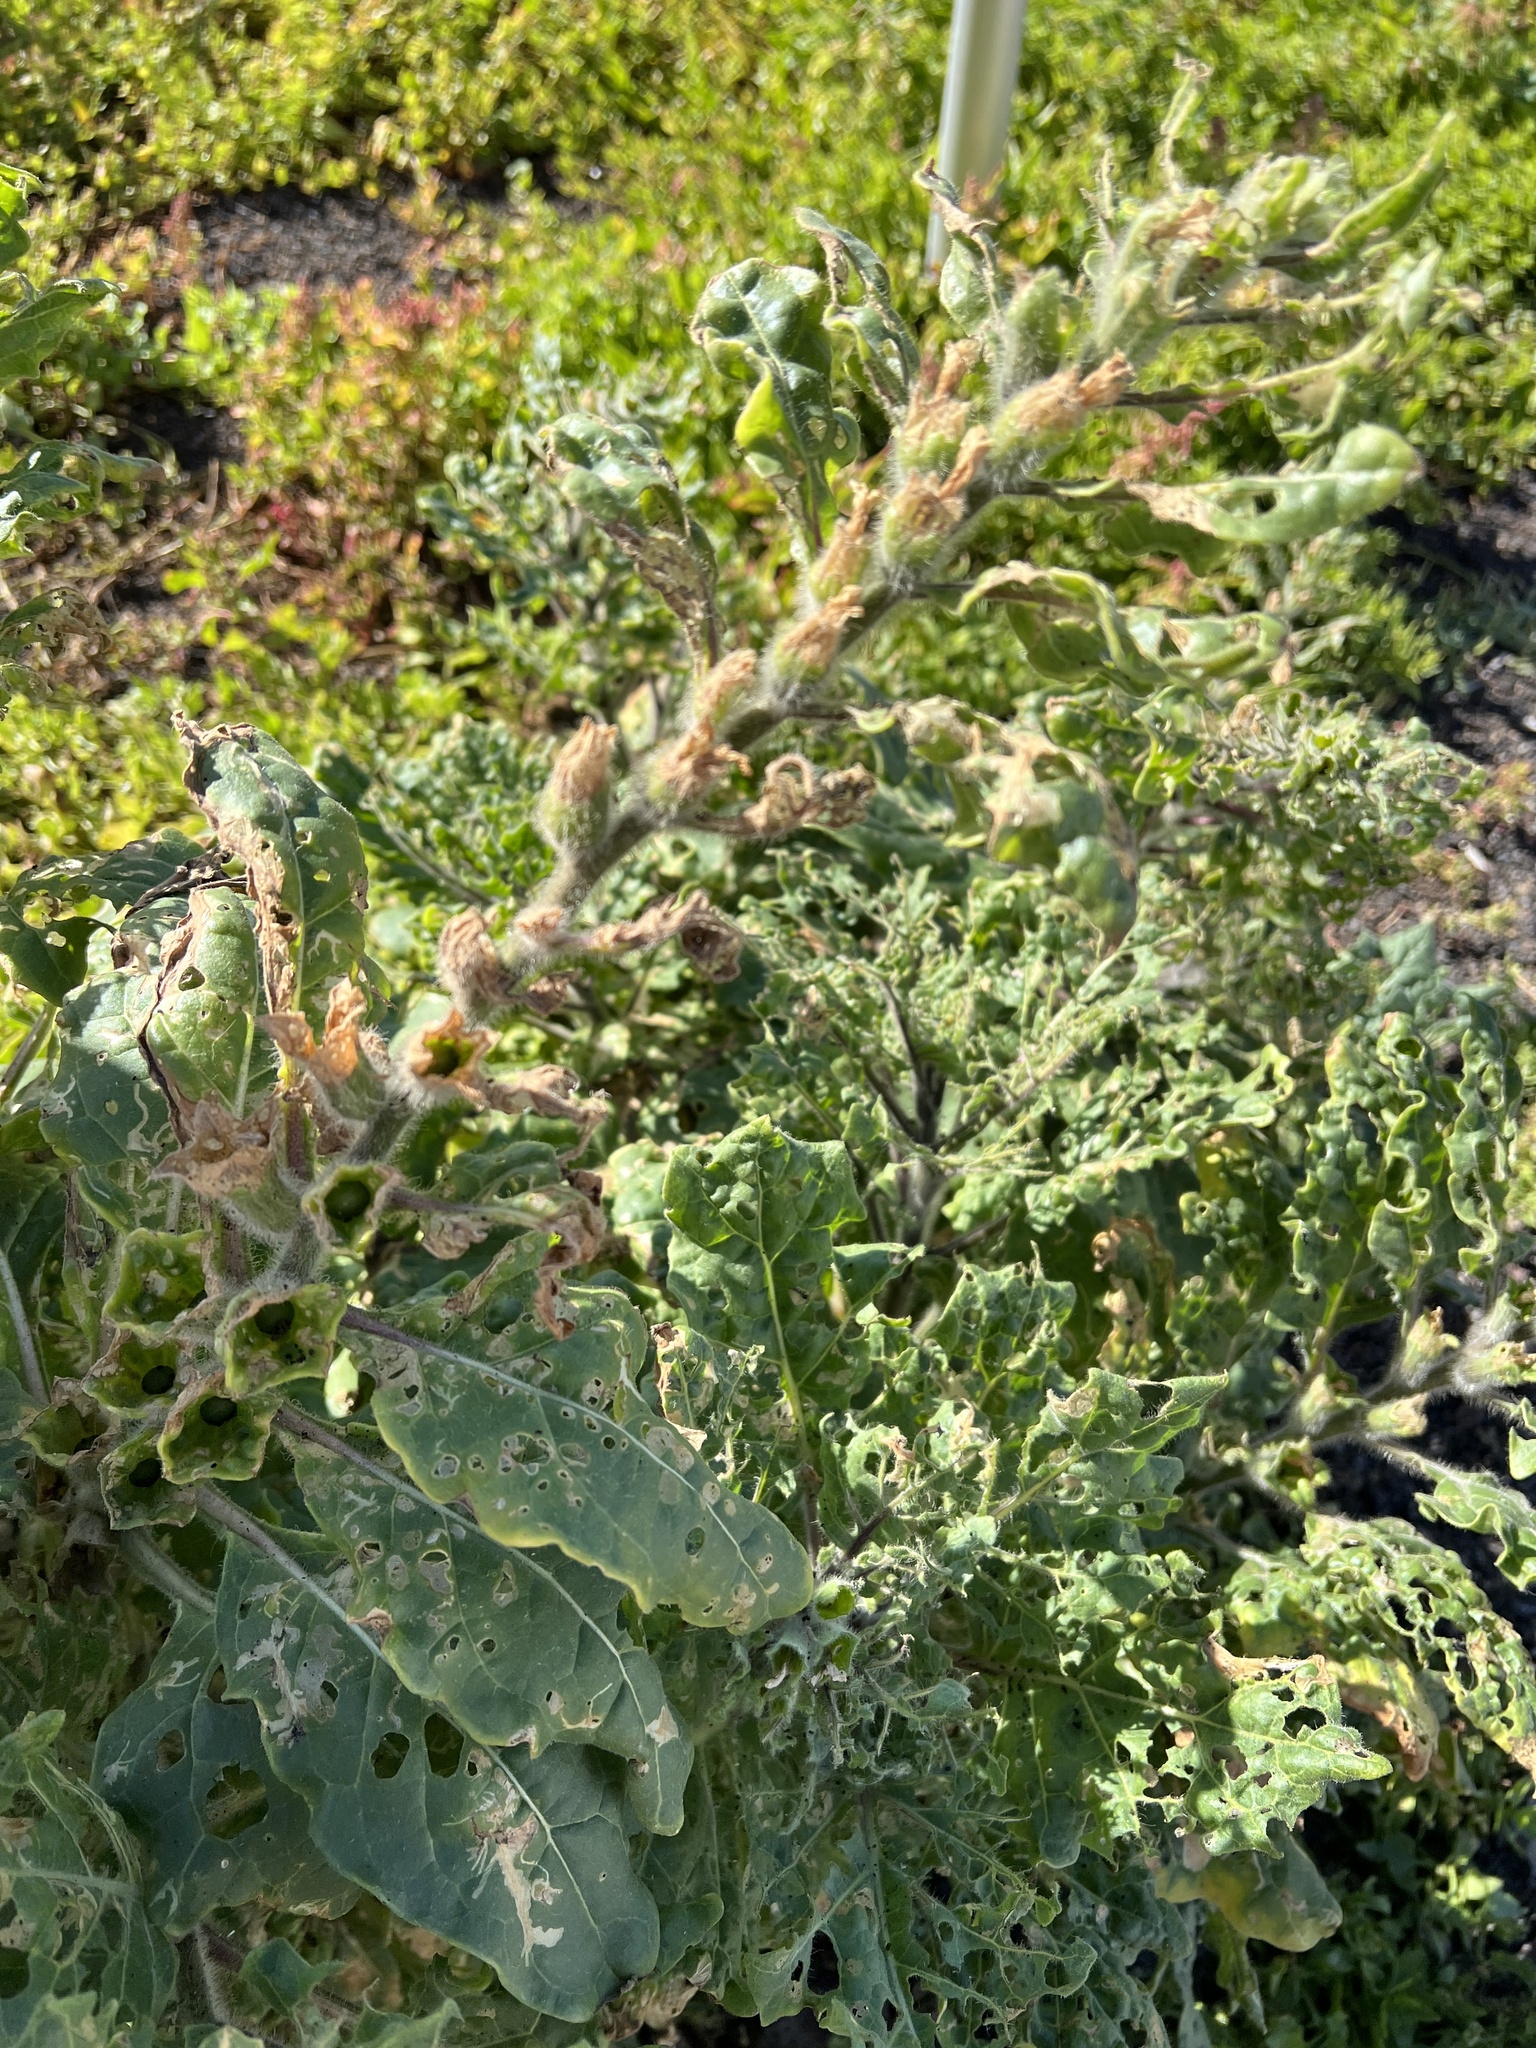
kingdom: Plantae
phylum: Tracheophyta
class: Magnoliopsida
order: Solanales
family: Solanaceae
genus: Hyoscyamus
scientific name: Hyoscyamus albus
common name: White henbane
